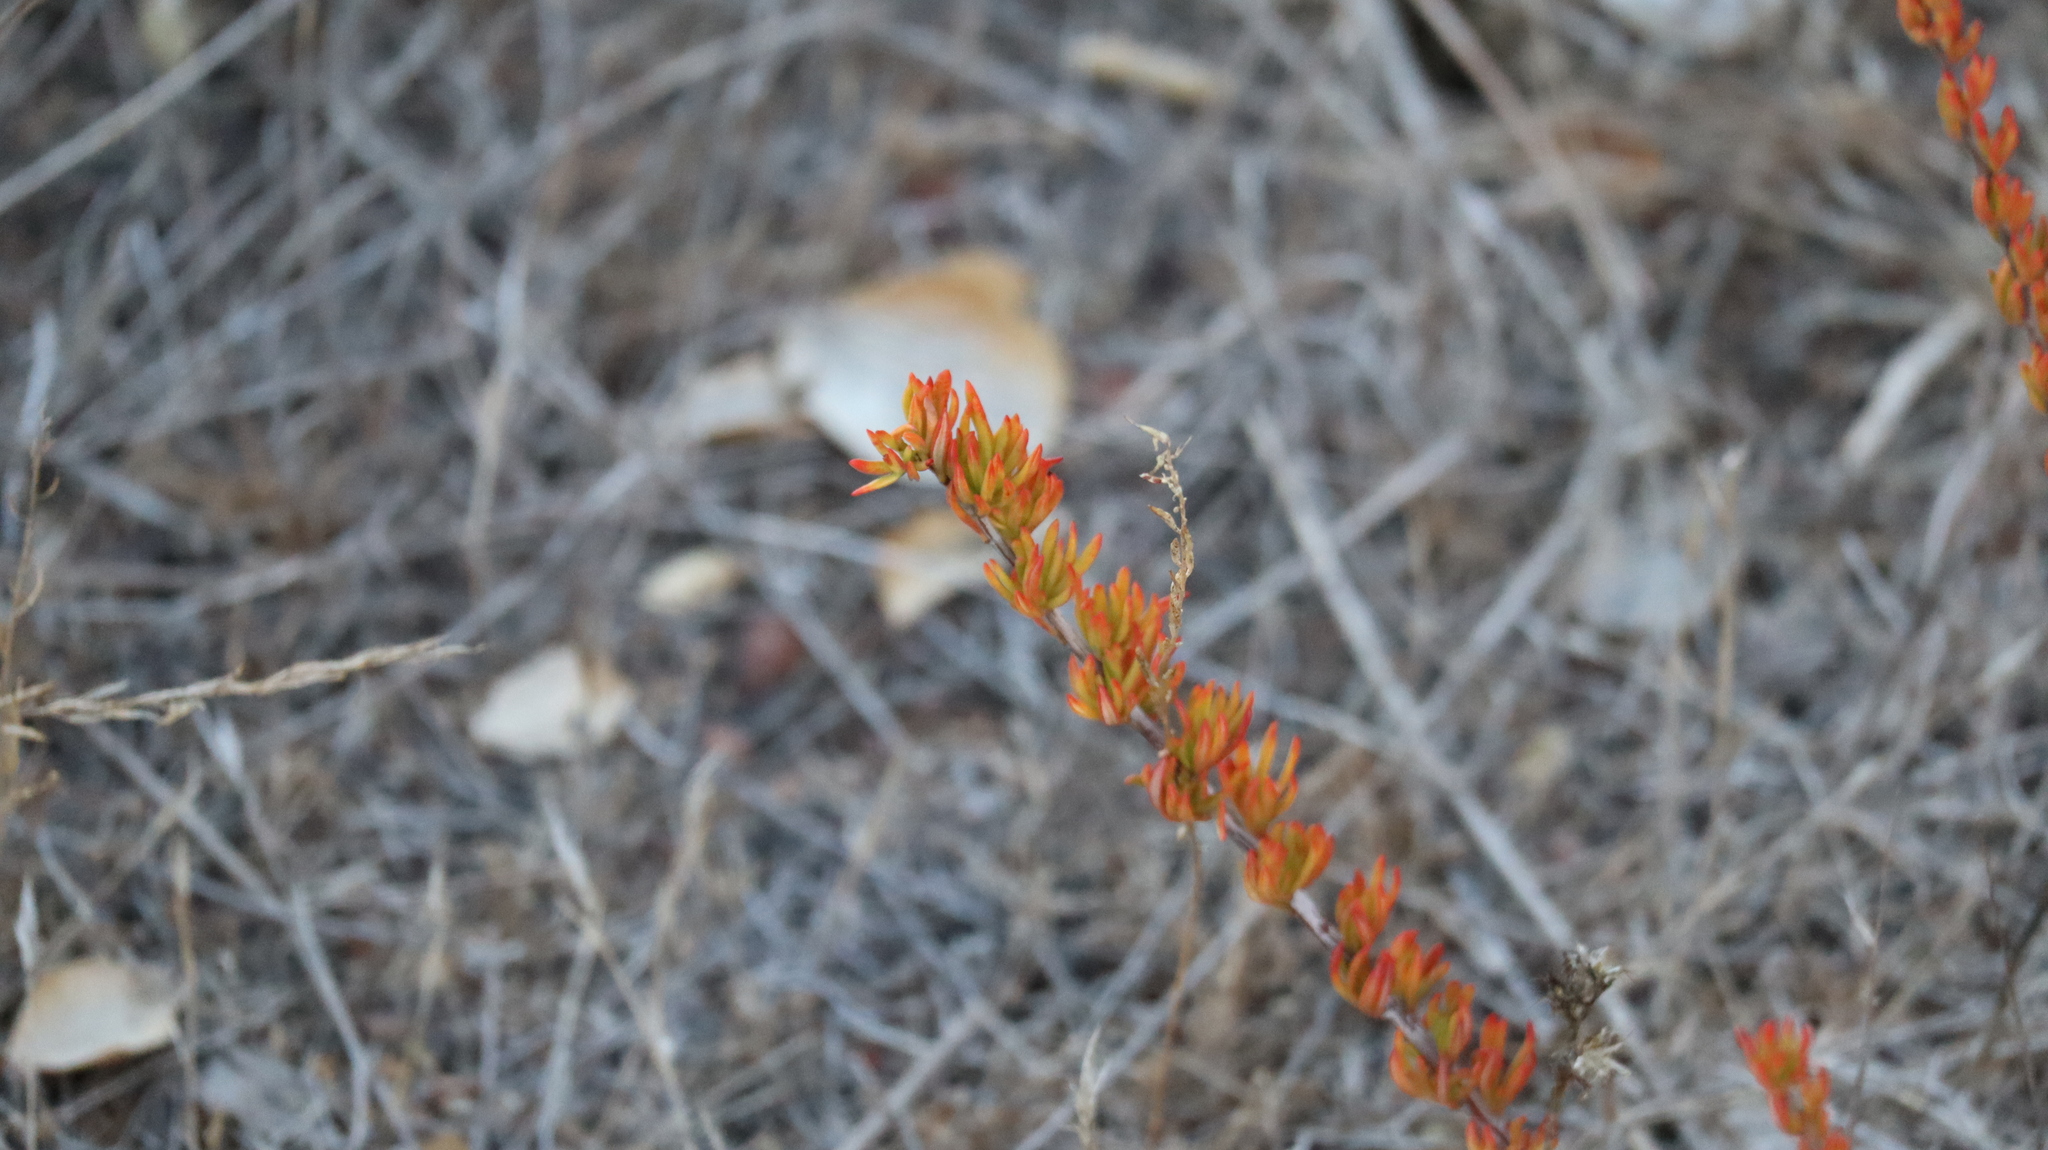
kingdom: Plantae
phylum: Tracheophyta
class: Magnoliopsida
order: Caryophyllales
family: Polygonaceae
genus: Eriogonum
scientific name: Eriogonum fasciculatum
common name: California wild buckwheat
